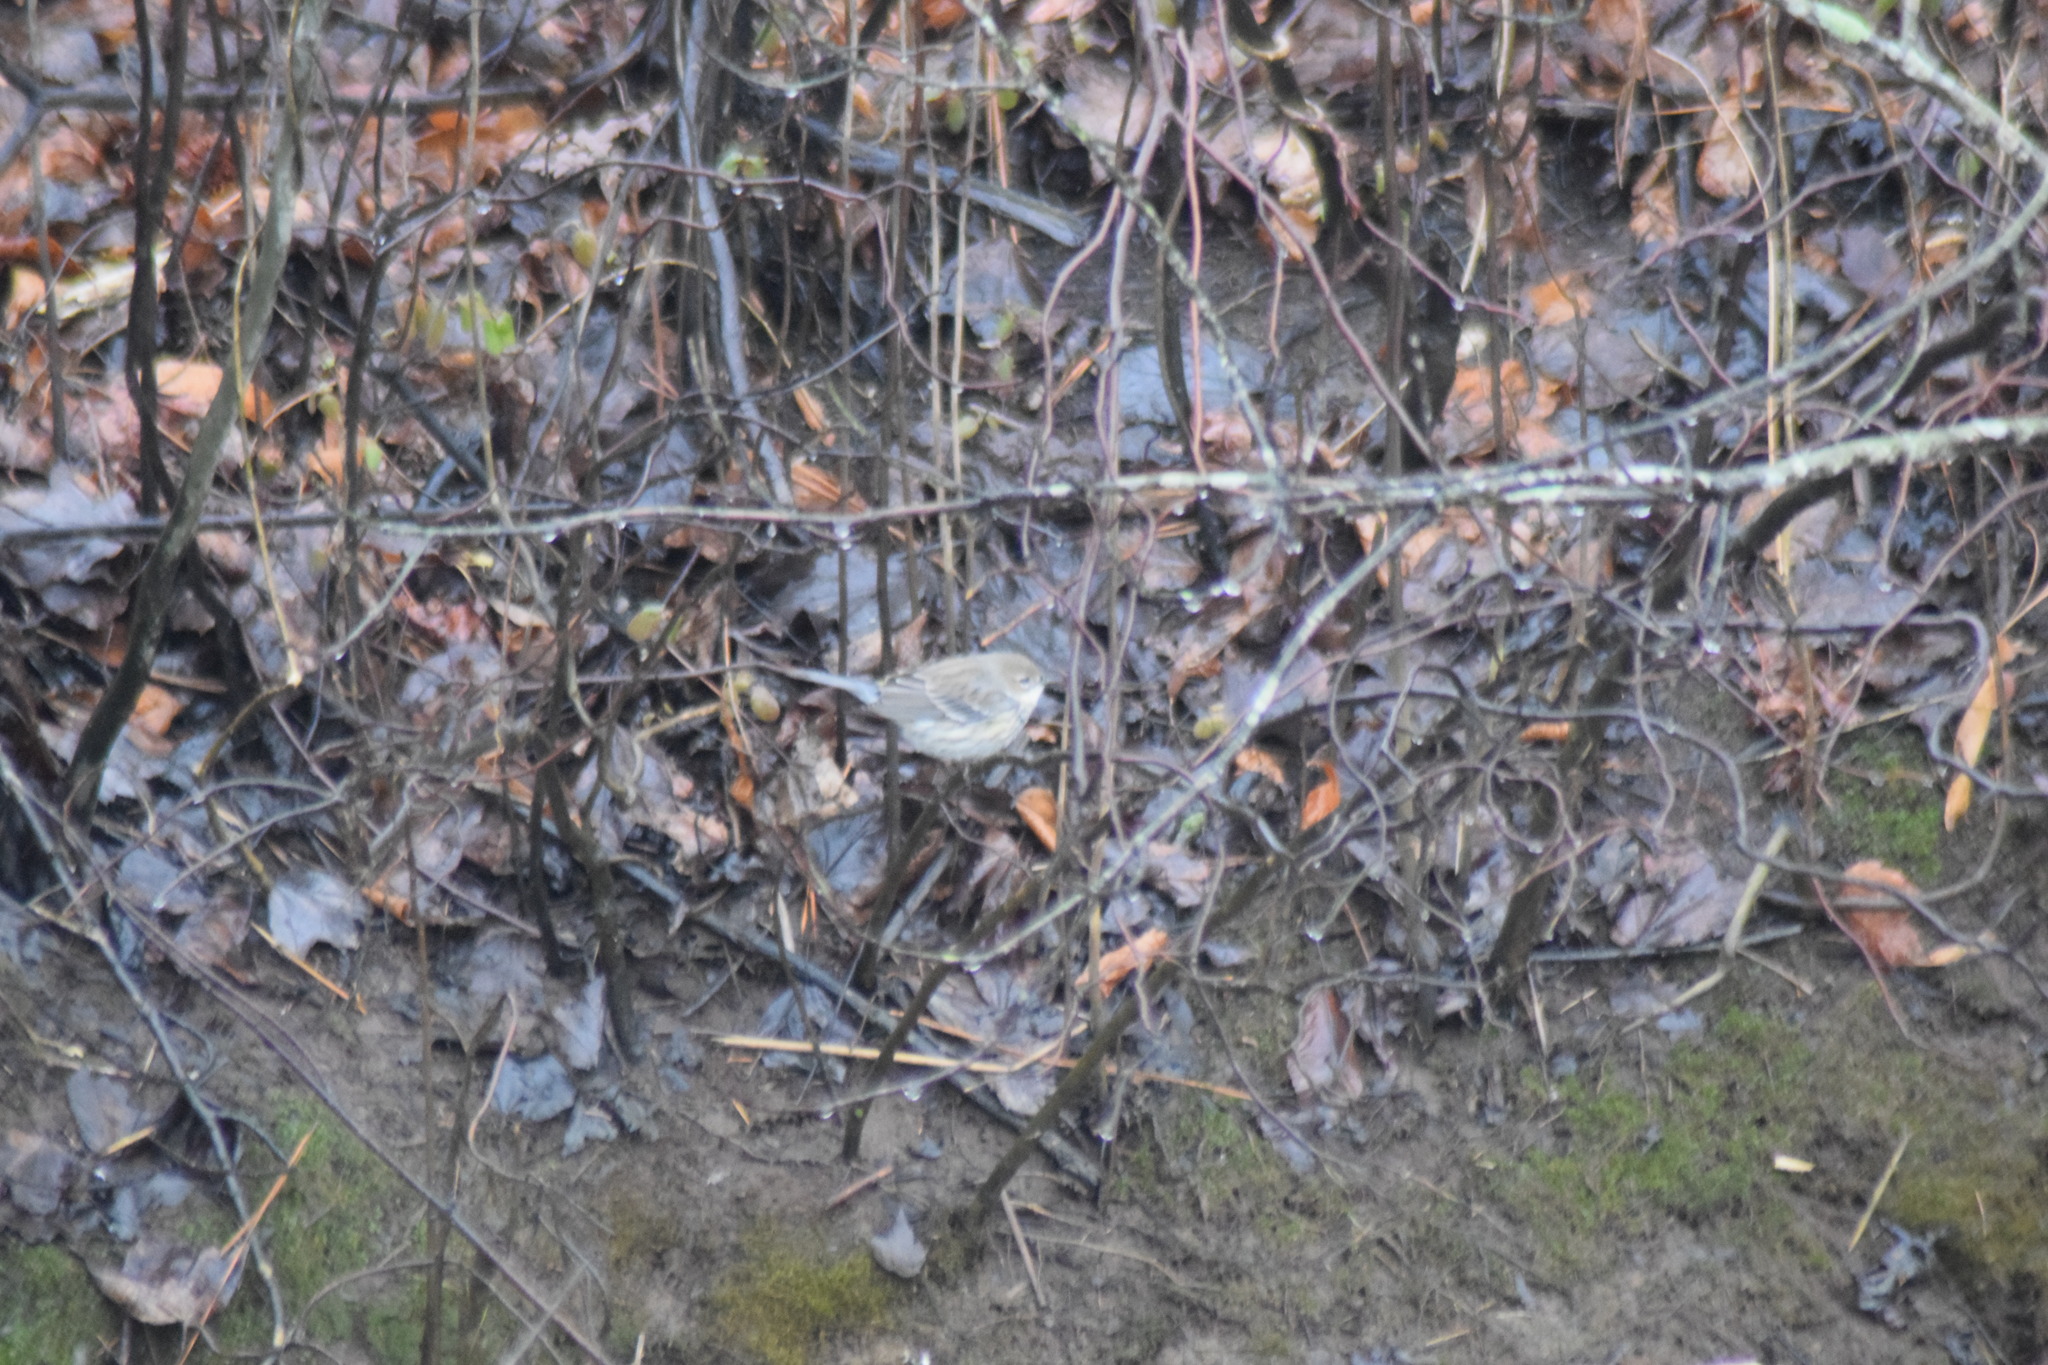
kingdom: Animalia
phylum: Chordata
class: Aves
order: Passeriformes
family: Parulidae
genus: Setophaga
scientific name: Setophaga coronata
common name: Myrtle warbler
